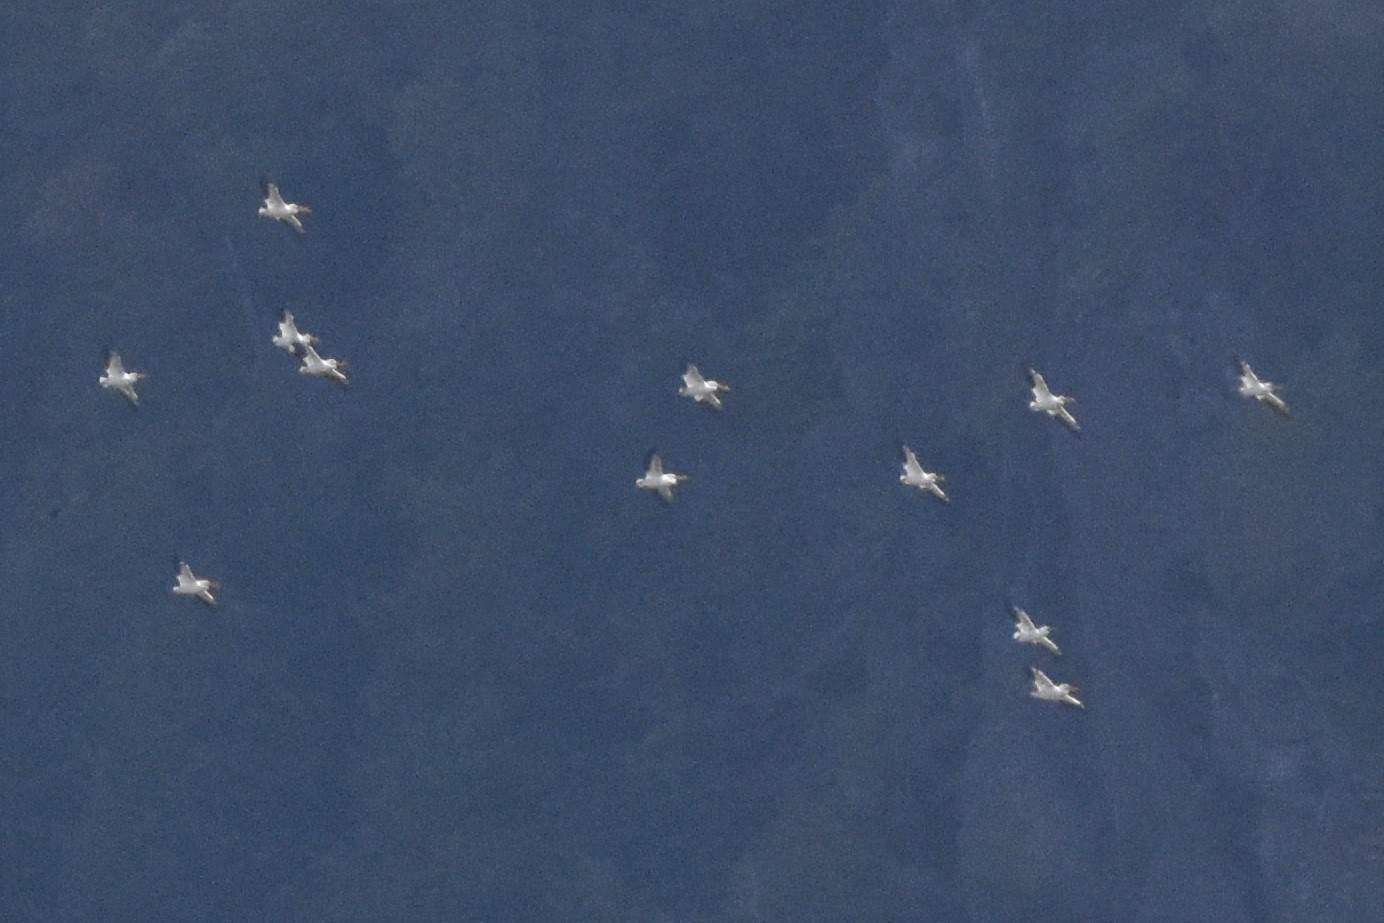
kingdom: Animalia
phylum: Chordata
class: Aves
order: Pelecaniformes
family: Pelecanidae
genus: Pelecanus
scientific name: Pelecanus erythrorhynchos
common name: American white pelican
